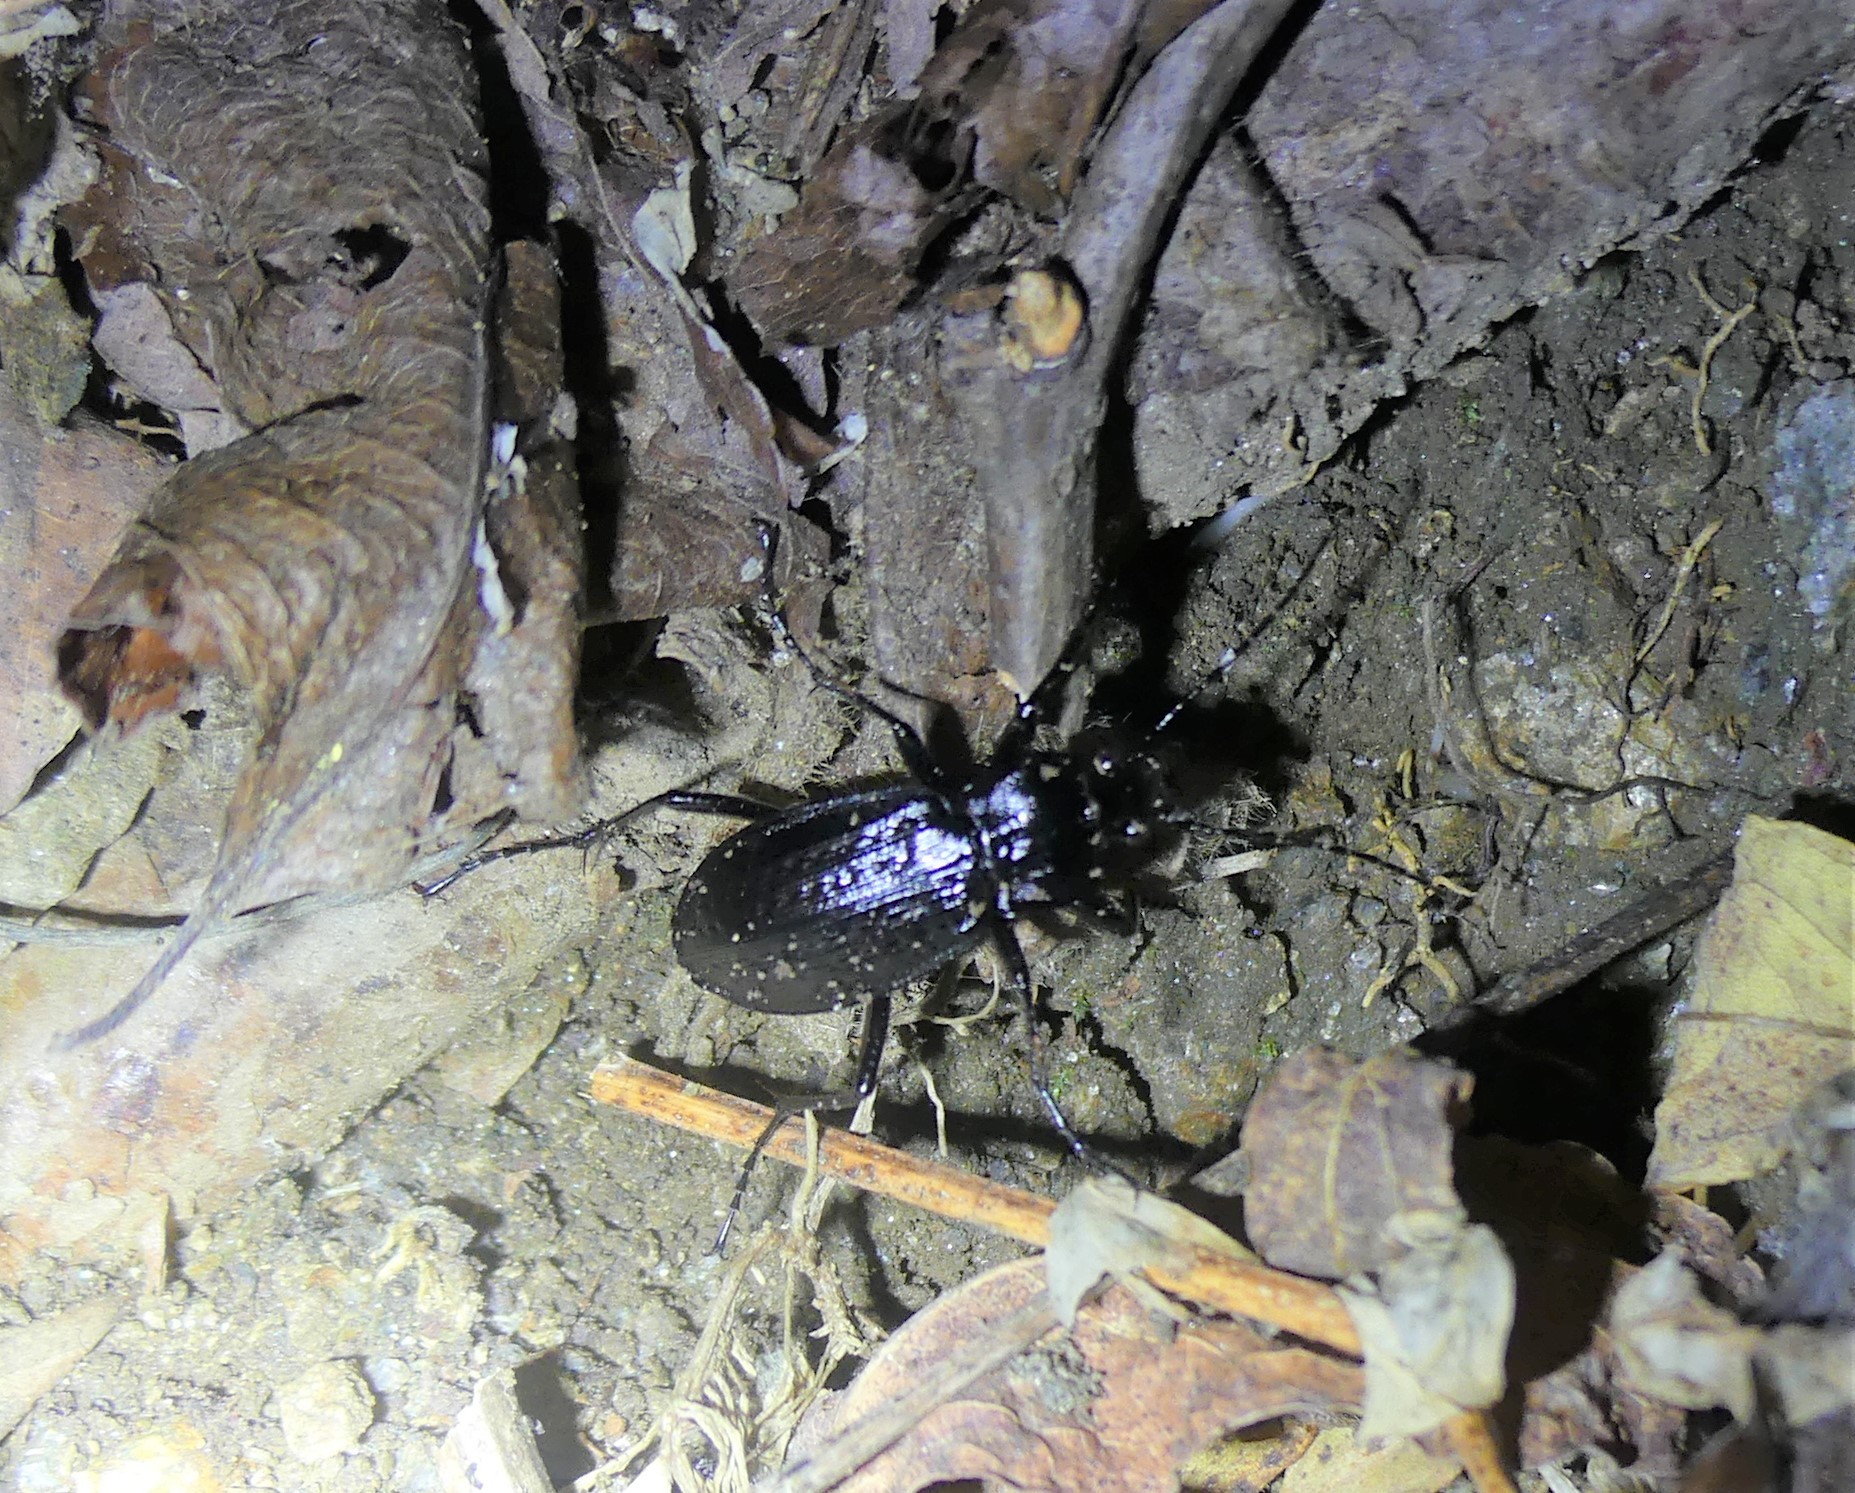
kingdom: Animalia
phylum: Arthropoda
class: Insecta
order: Coleoptera
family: Carabidae
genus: Carabus
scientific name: Carabus granulatus
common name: Granulate ground beetle
